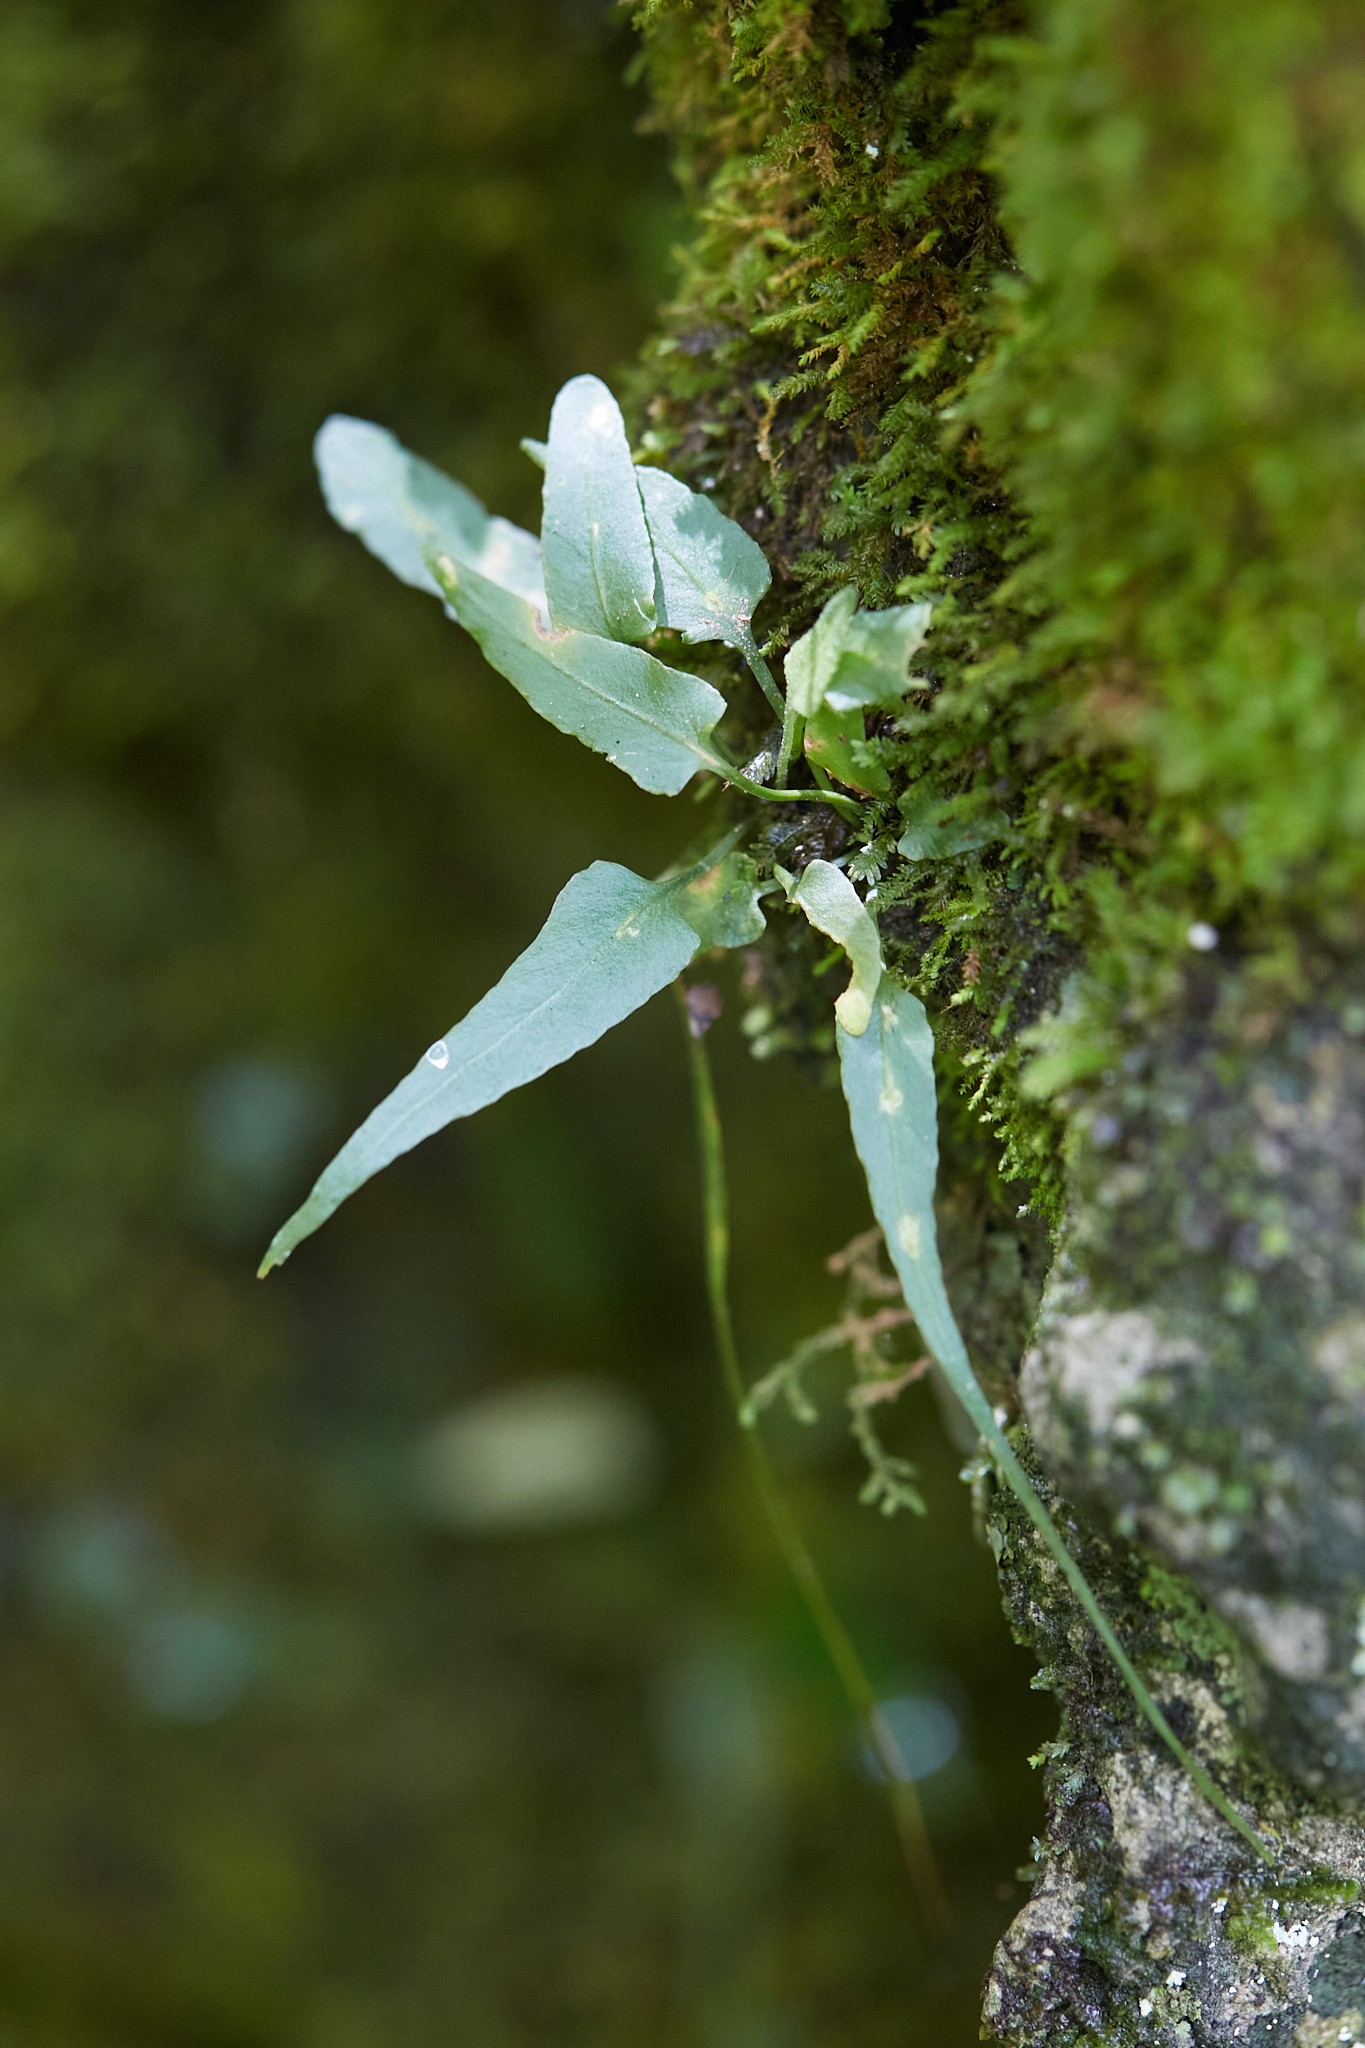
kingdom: Plantae
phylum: Tracheophyta
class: Polypodiopsida
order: Polypodiales
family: Aspleniaceae
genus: Asplenium
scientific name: Asplenium rhizophyllum
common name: Walking fern
